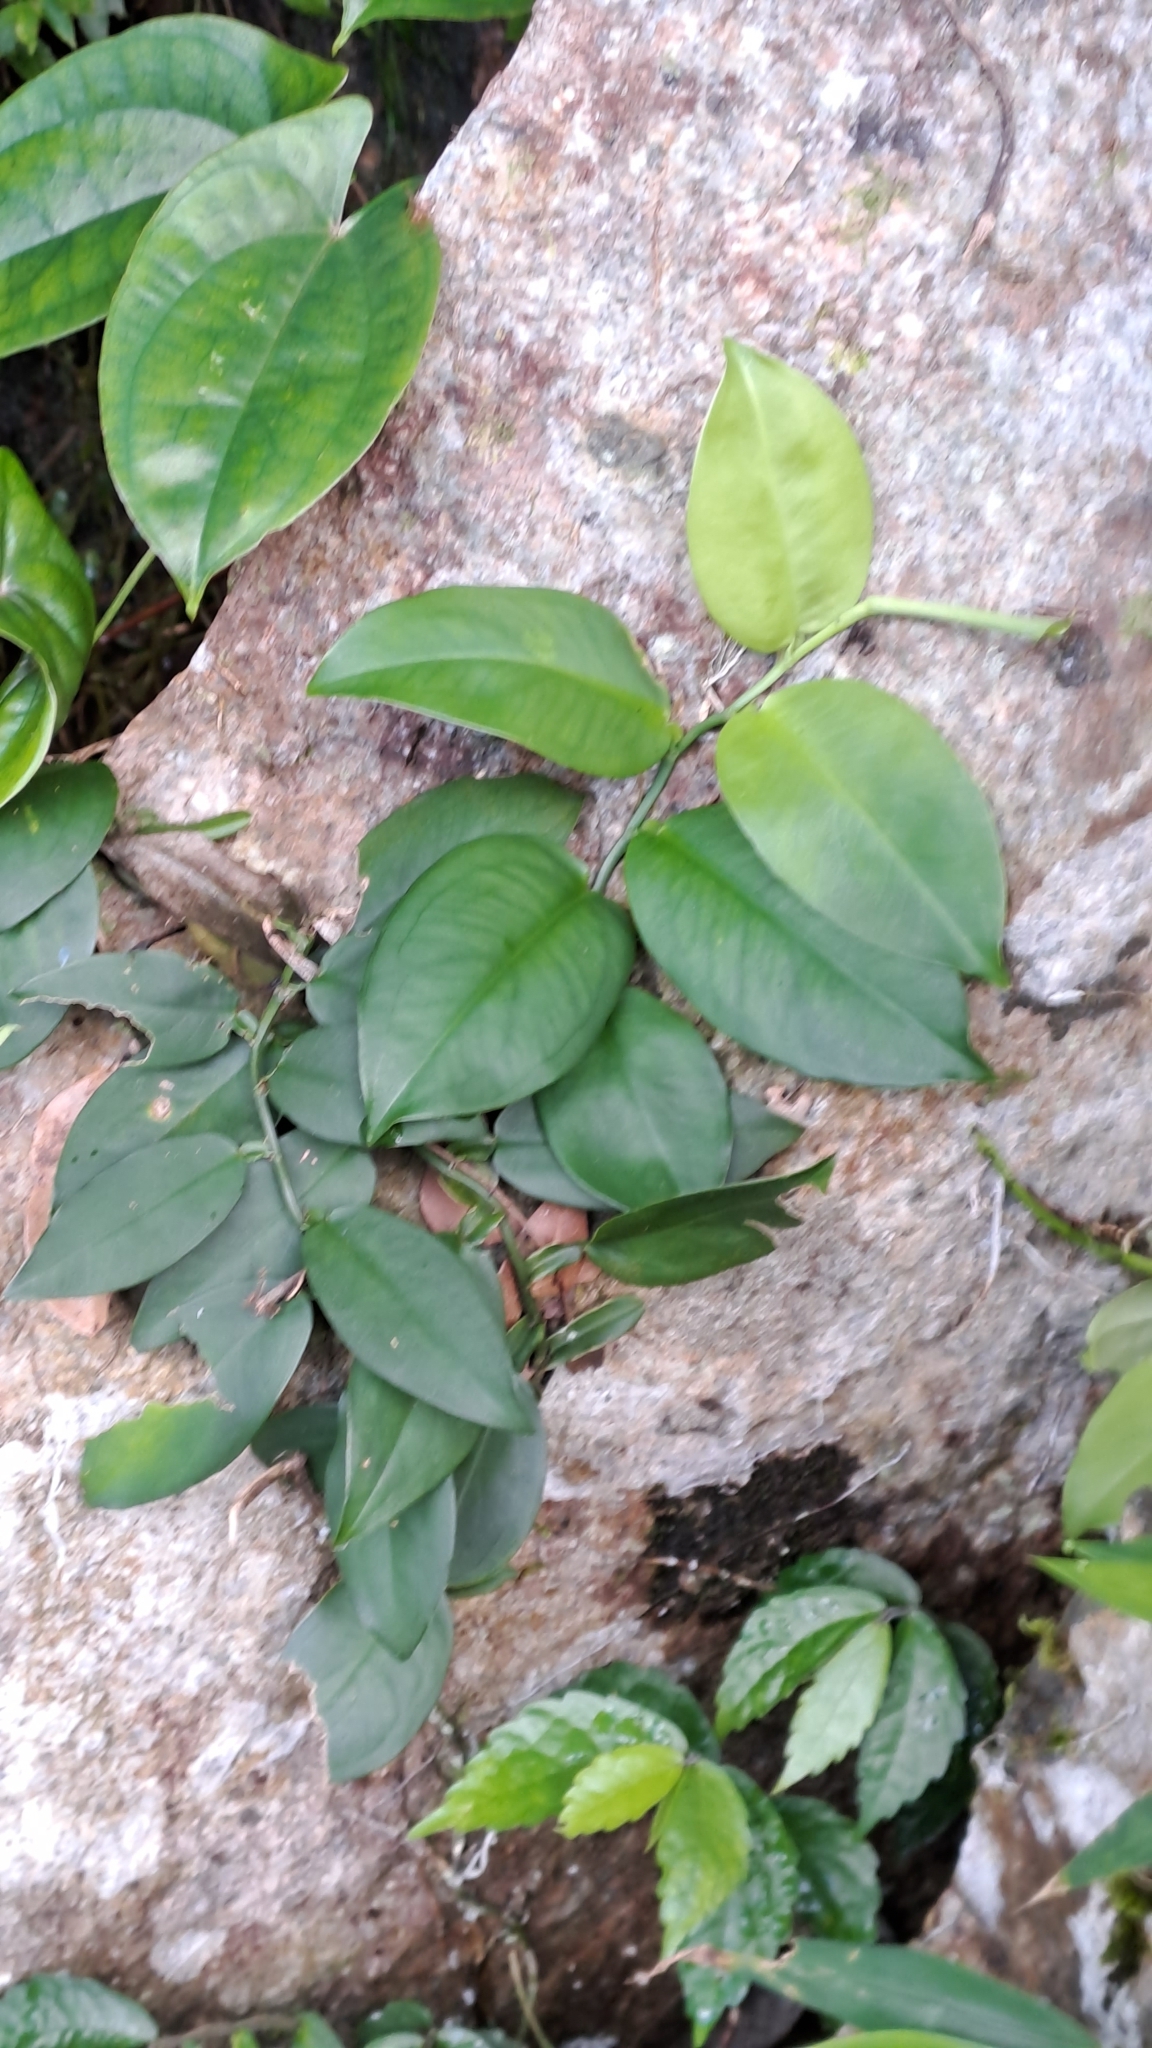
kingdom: Plantae
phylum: Tracheophyta
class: Liliopsida
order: Alismatales
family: Araceae
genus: Pothos
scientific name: Pothos chinensis
